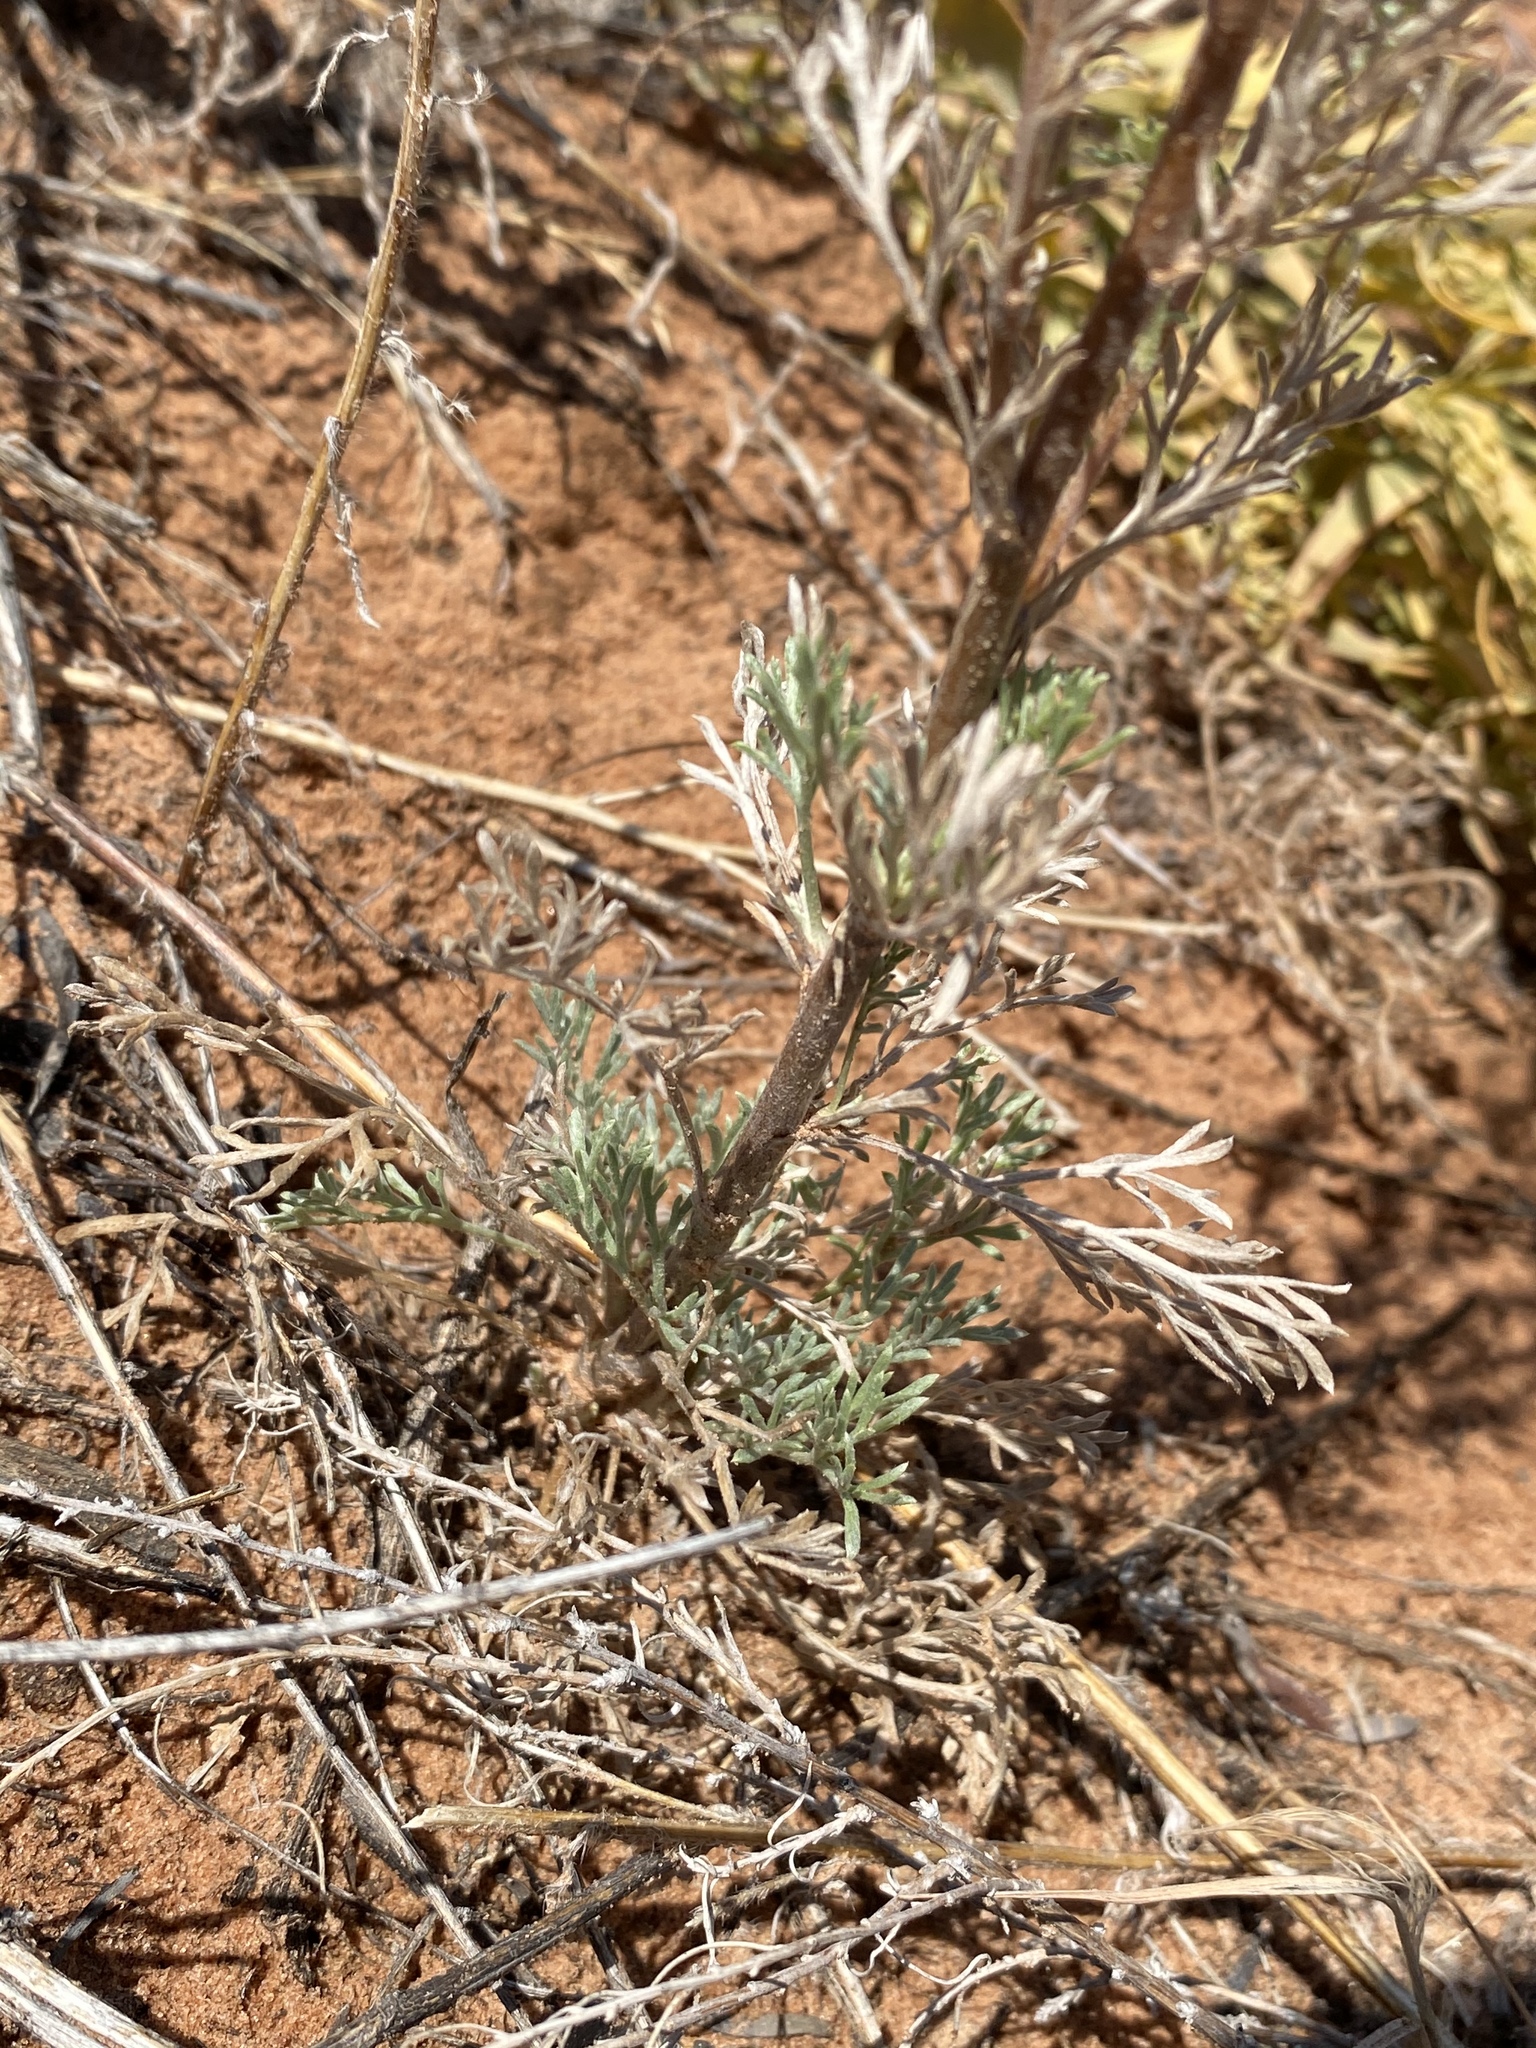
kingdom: Plantae
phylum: Tracheophyta
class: Magnoliopsida
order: Asterales
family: Asteraceae
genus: Artemisia
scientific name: Artemisia campestris
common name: Field wormwood
